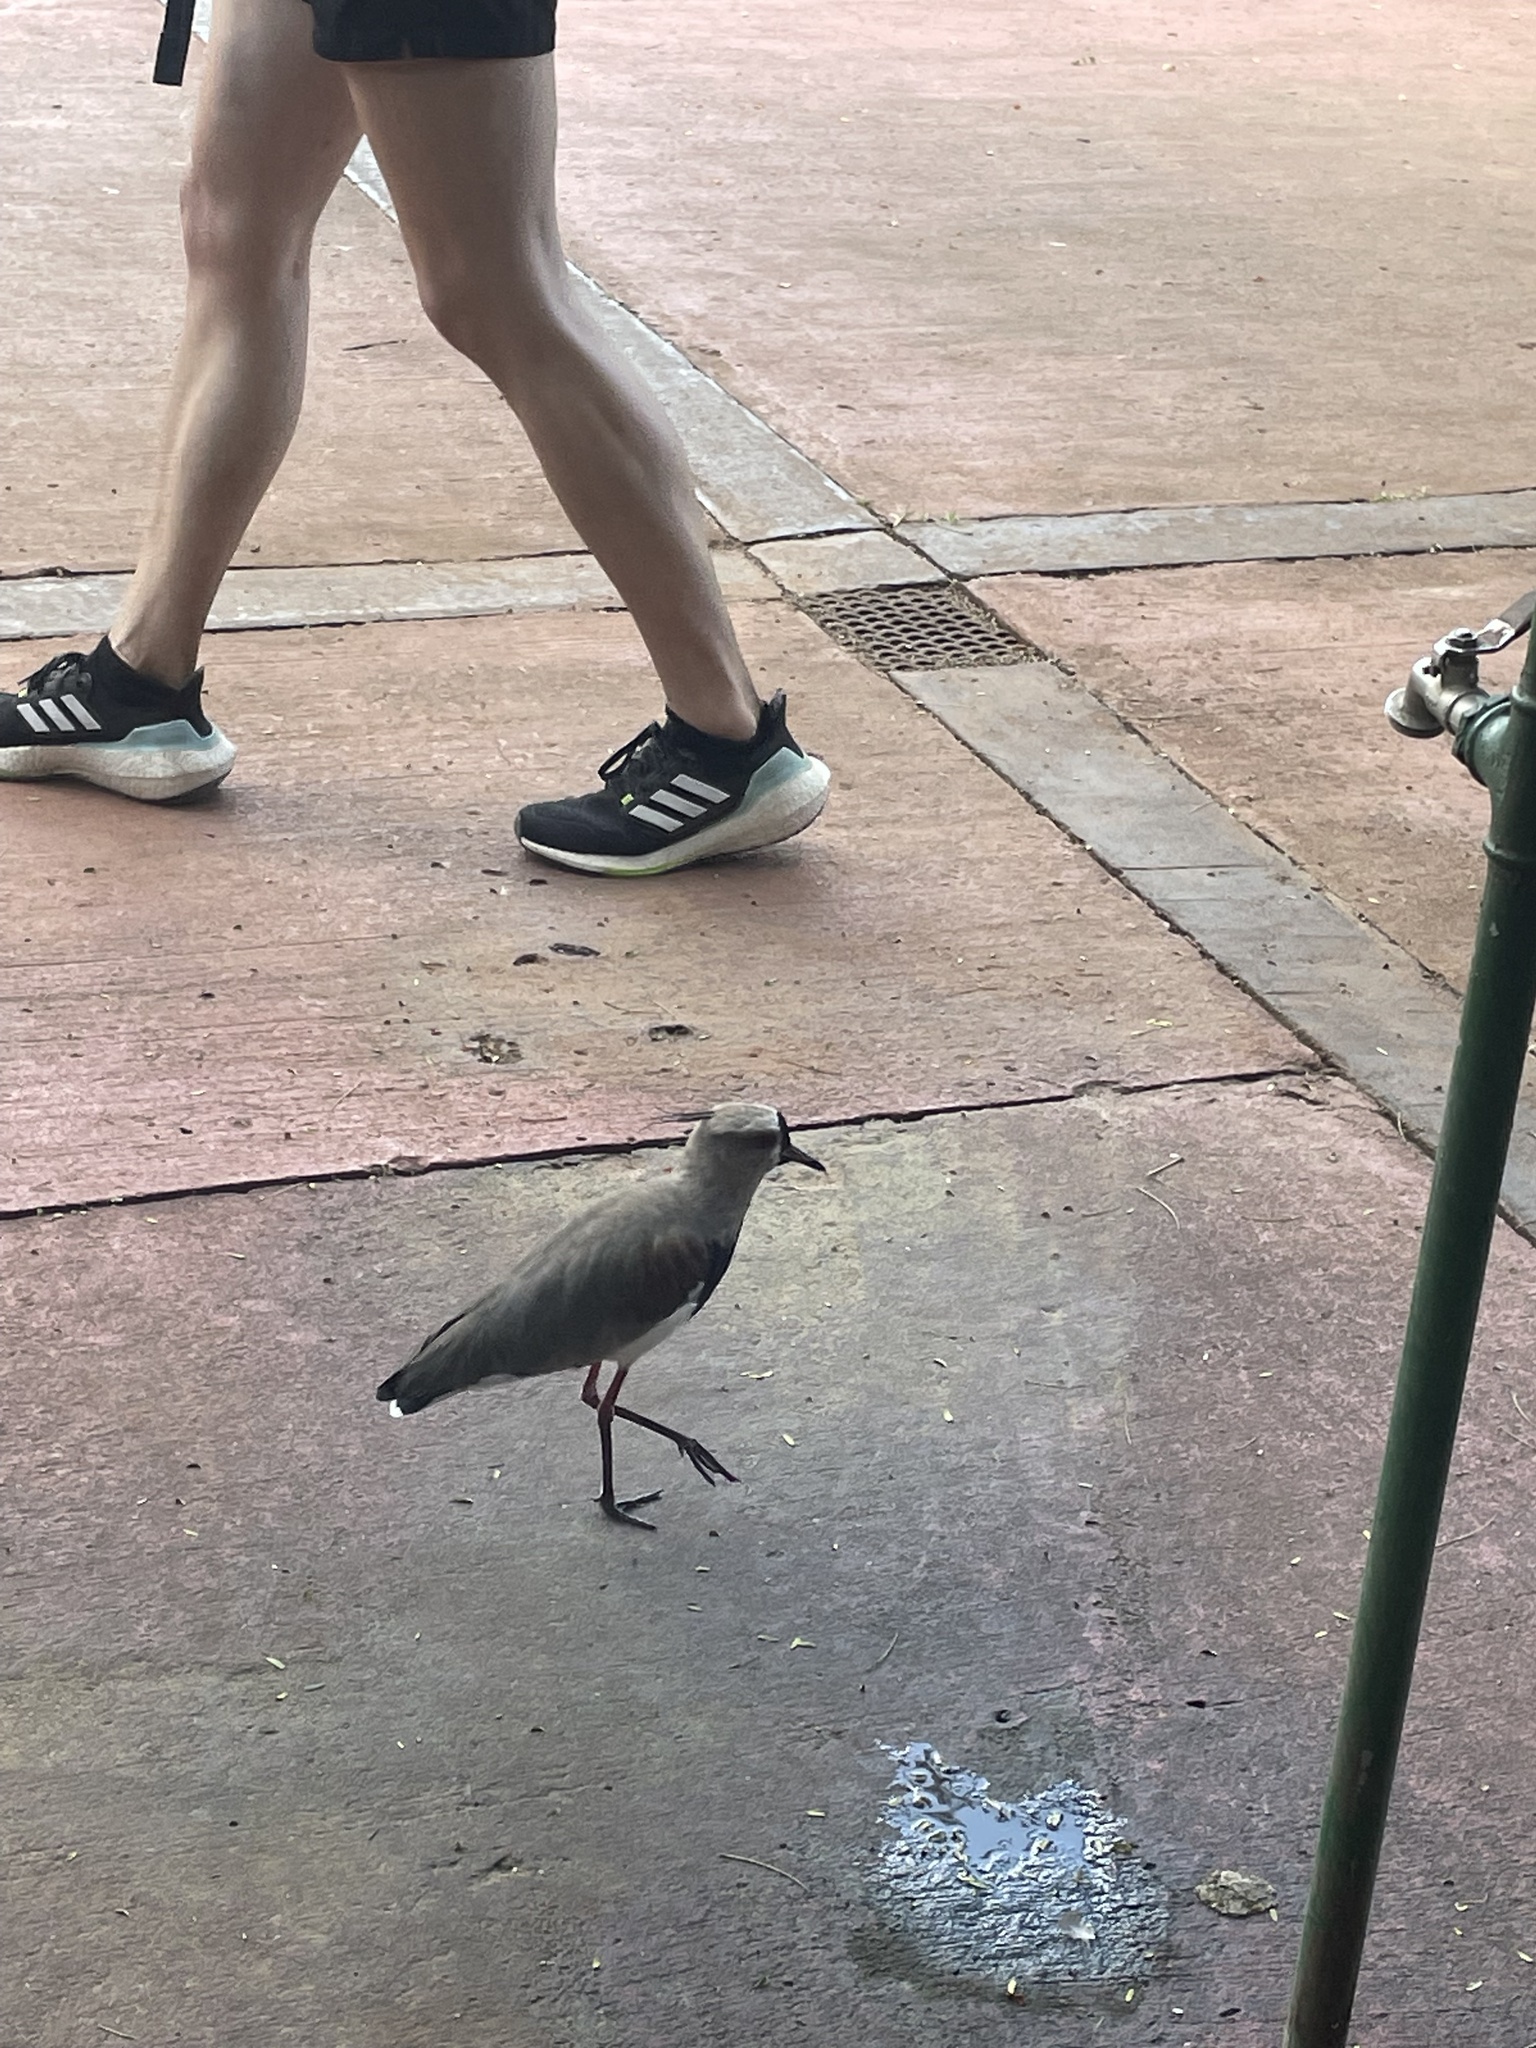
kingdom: Animalia
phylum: Chordata
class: Aves
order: Charadriiformes
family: Charadriidae
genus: Vanellus
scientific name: Vanellus chilensis
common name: Southern lapwing
